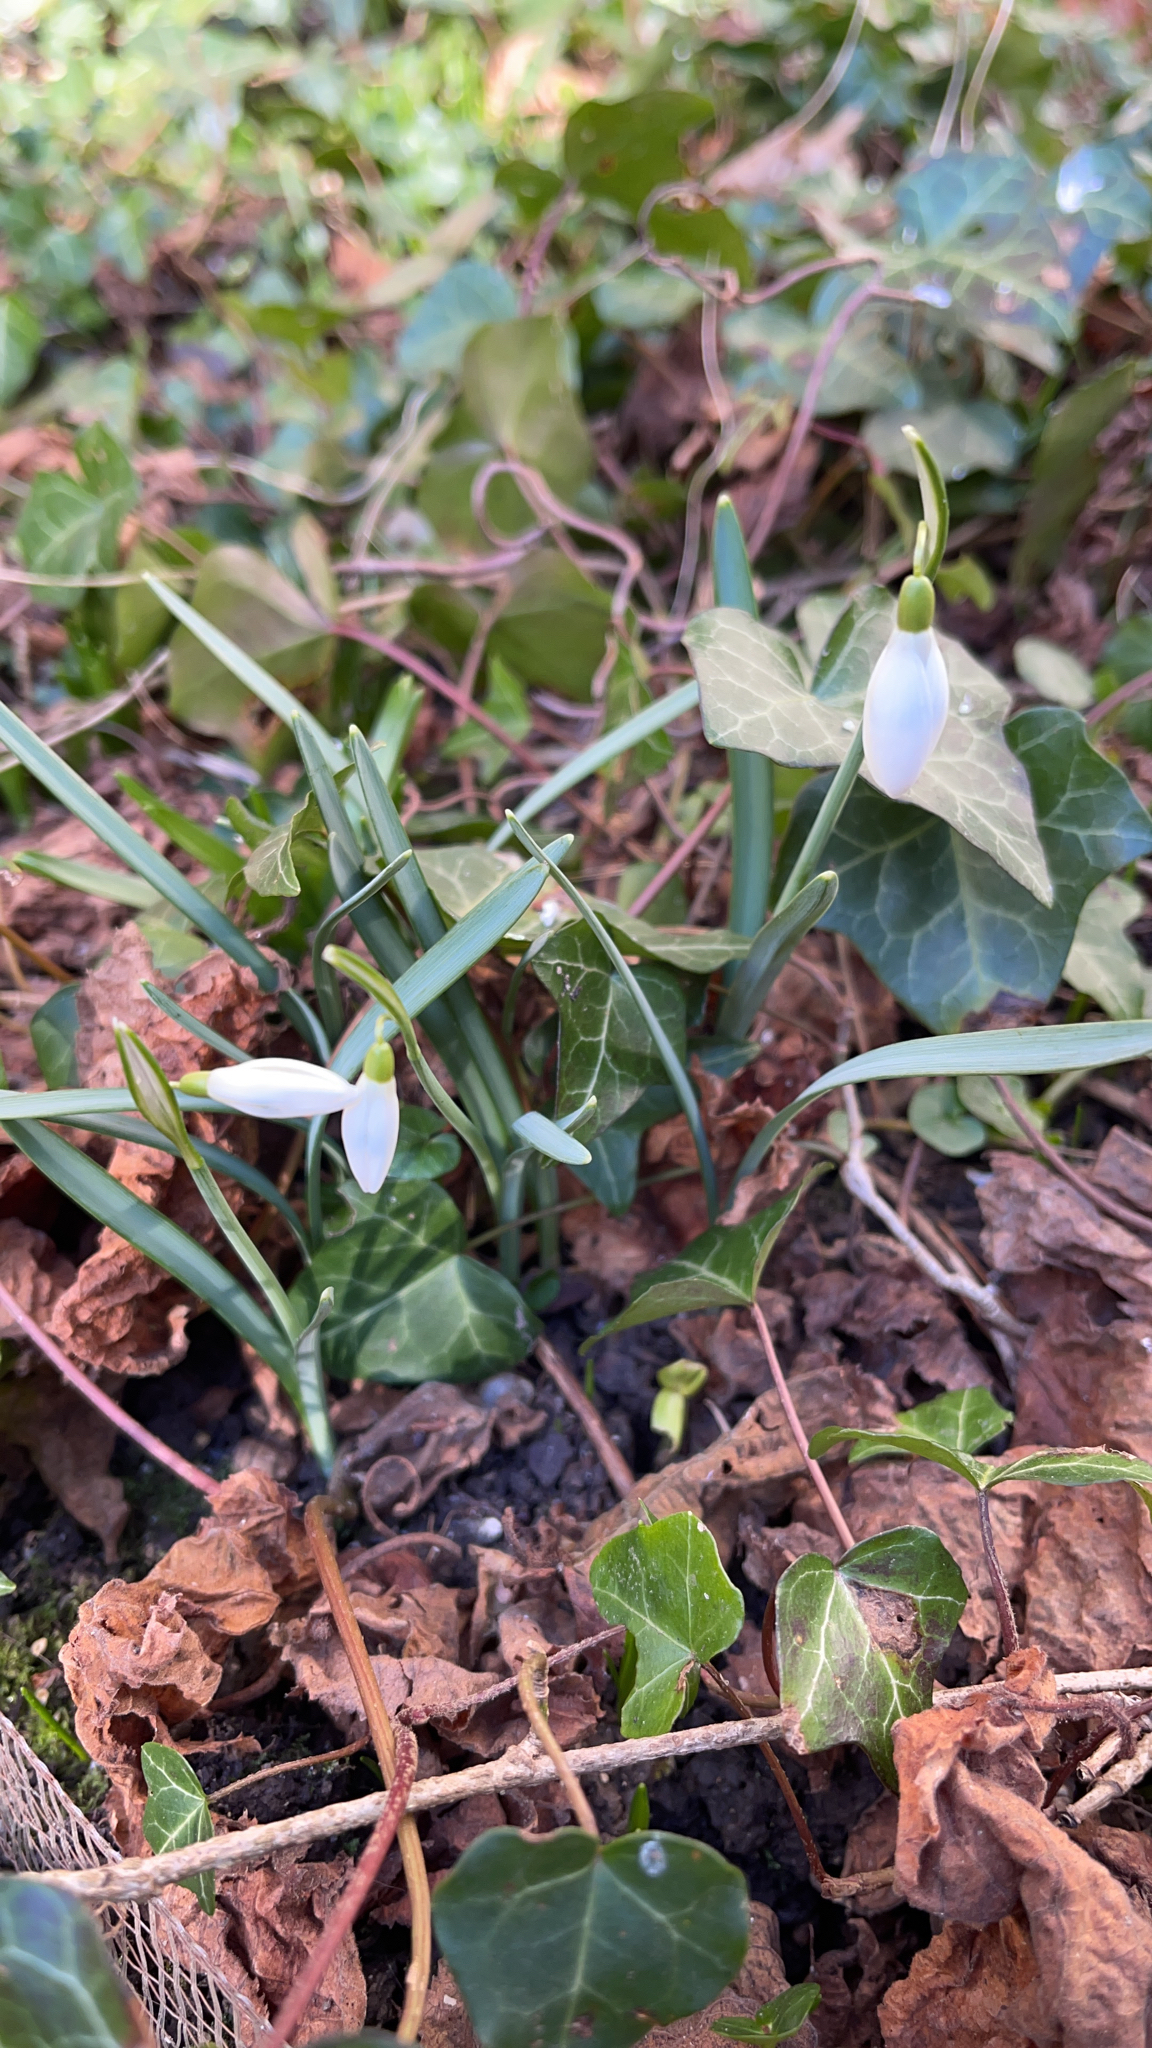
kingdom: Plantae
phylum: Tracheophyta
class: Liliopsida
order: Asparagales
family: Amaryllidaceae
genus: Galanthus
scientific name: Galanthus nivalis
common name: Snowdrop
